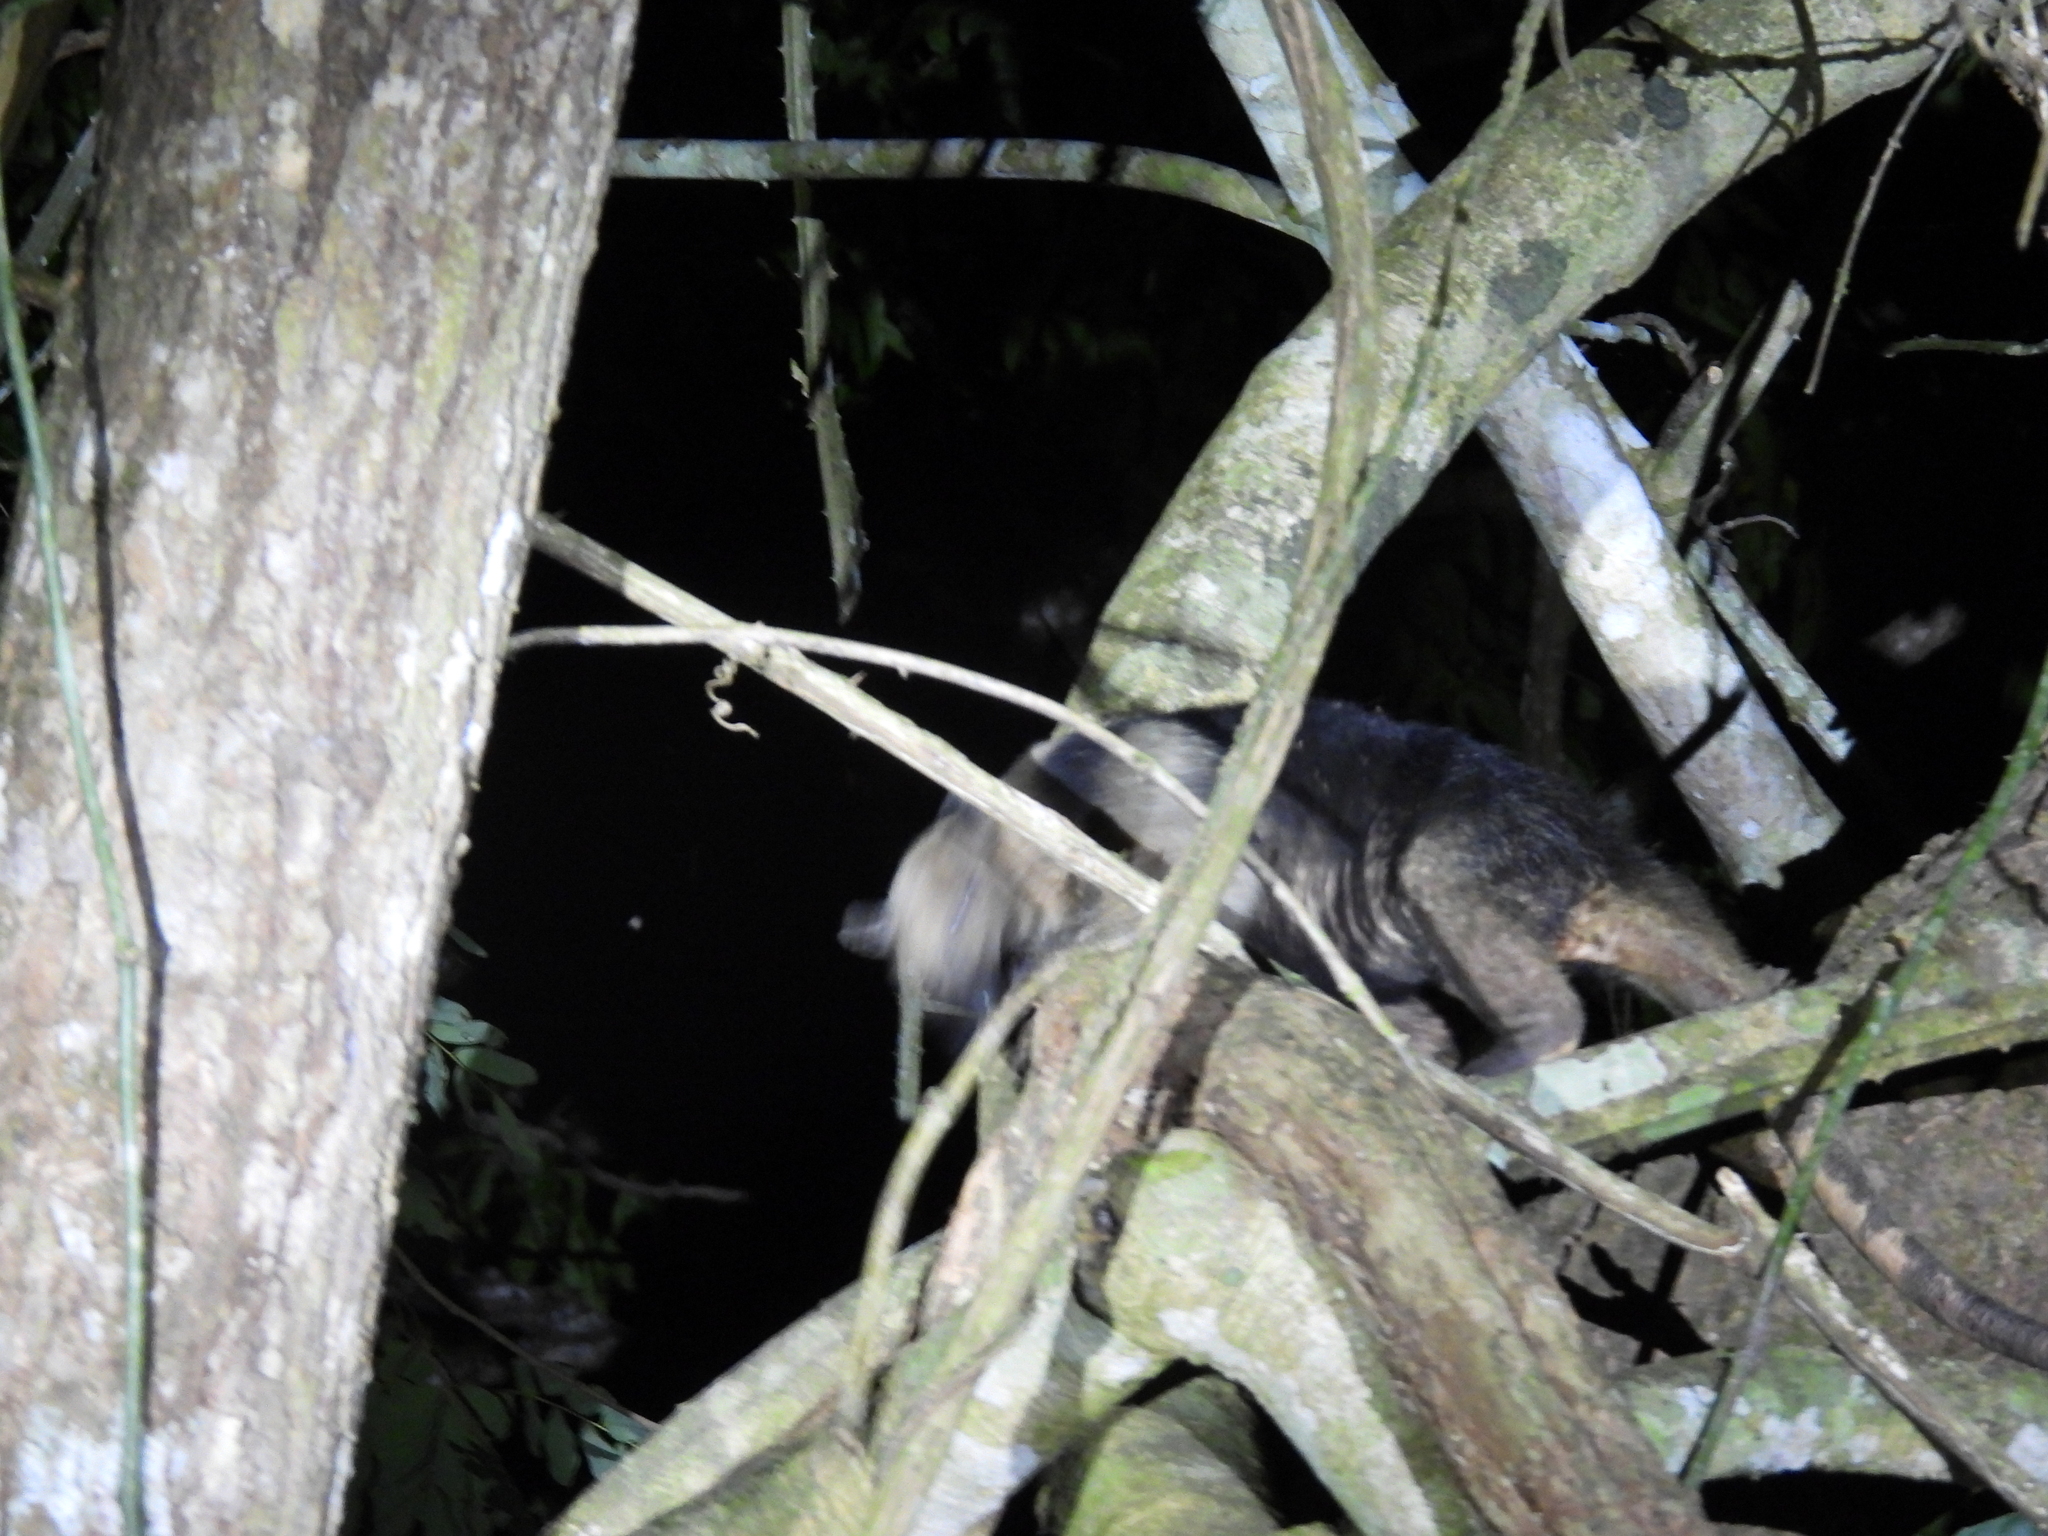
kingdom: Animalia
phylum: Chordata
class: Mammalia
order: Pilosa
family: Myrmecophagidae
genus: Tamandua
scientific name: Tamandua mexicana
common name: Northern tamandua
